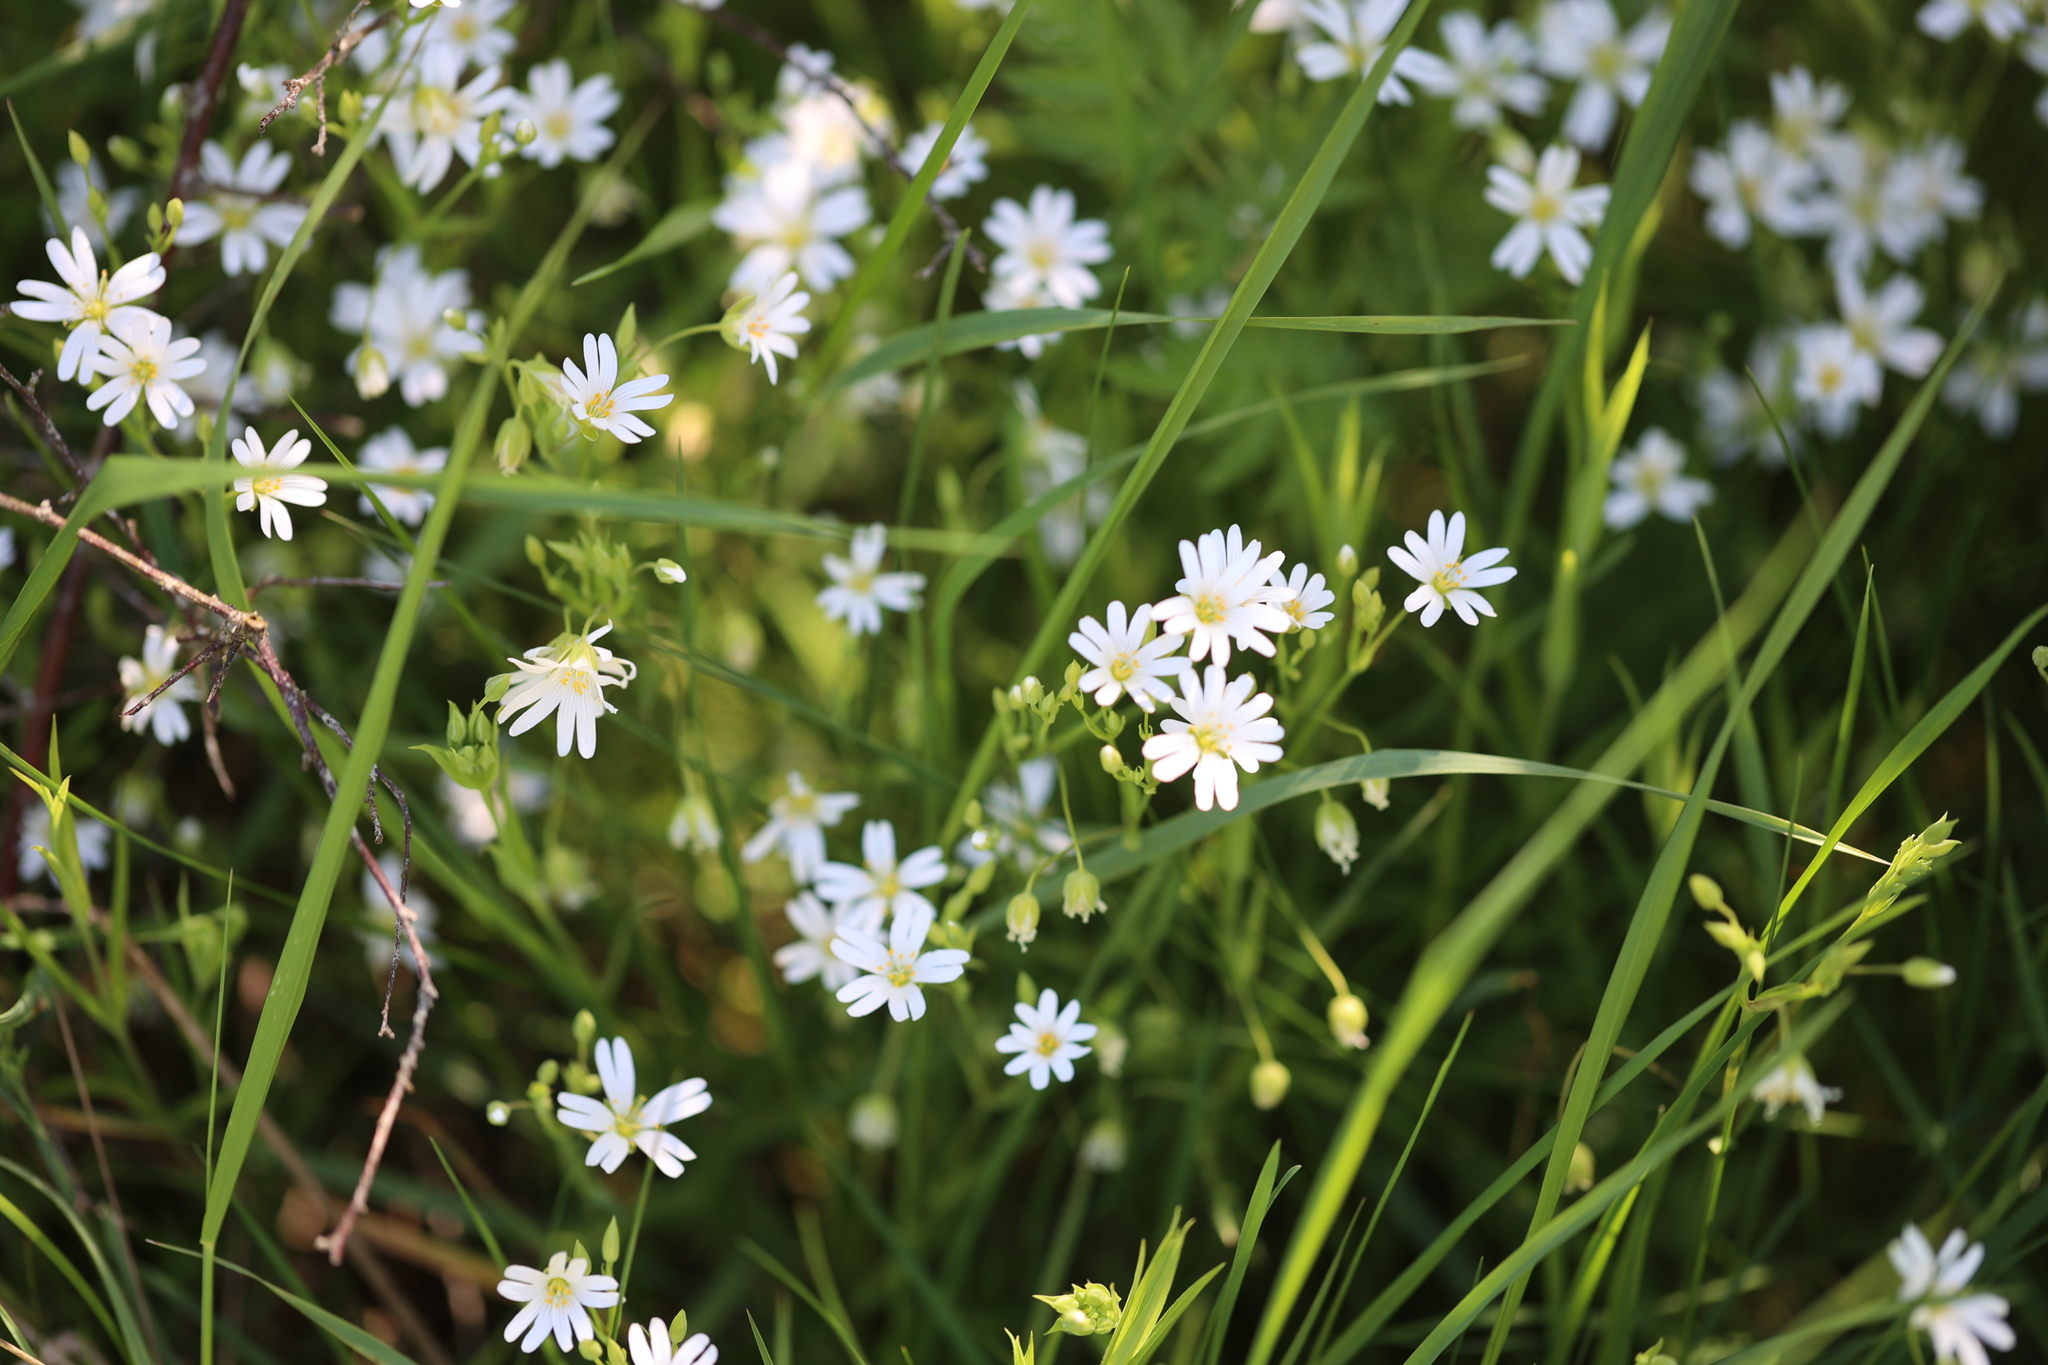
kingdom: Plantae
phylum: Tracheophyta
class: Magnoliopsida
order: Caryophyllales
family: Caryophyllaceae
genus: Rabelera
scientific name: Rabelera holostea
